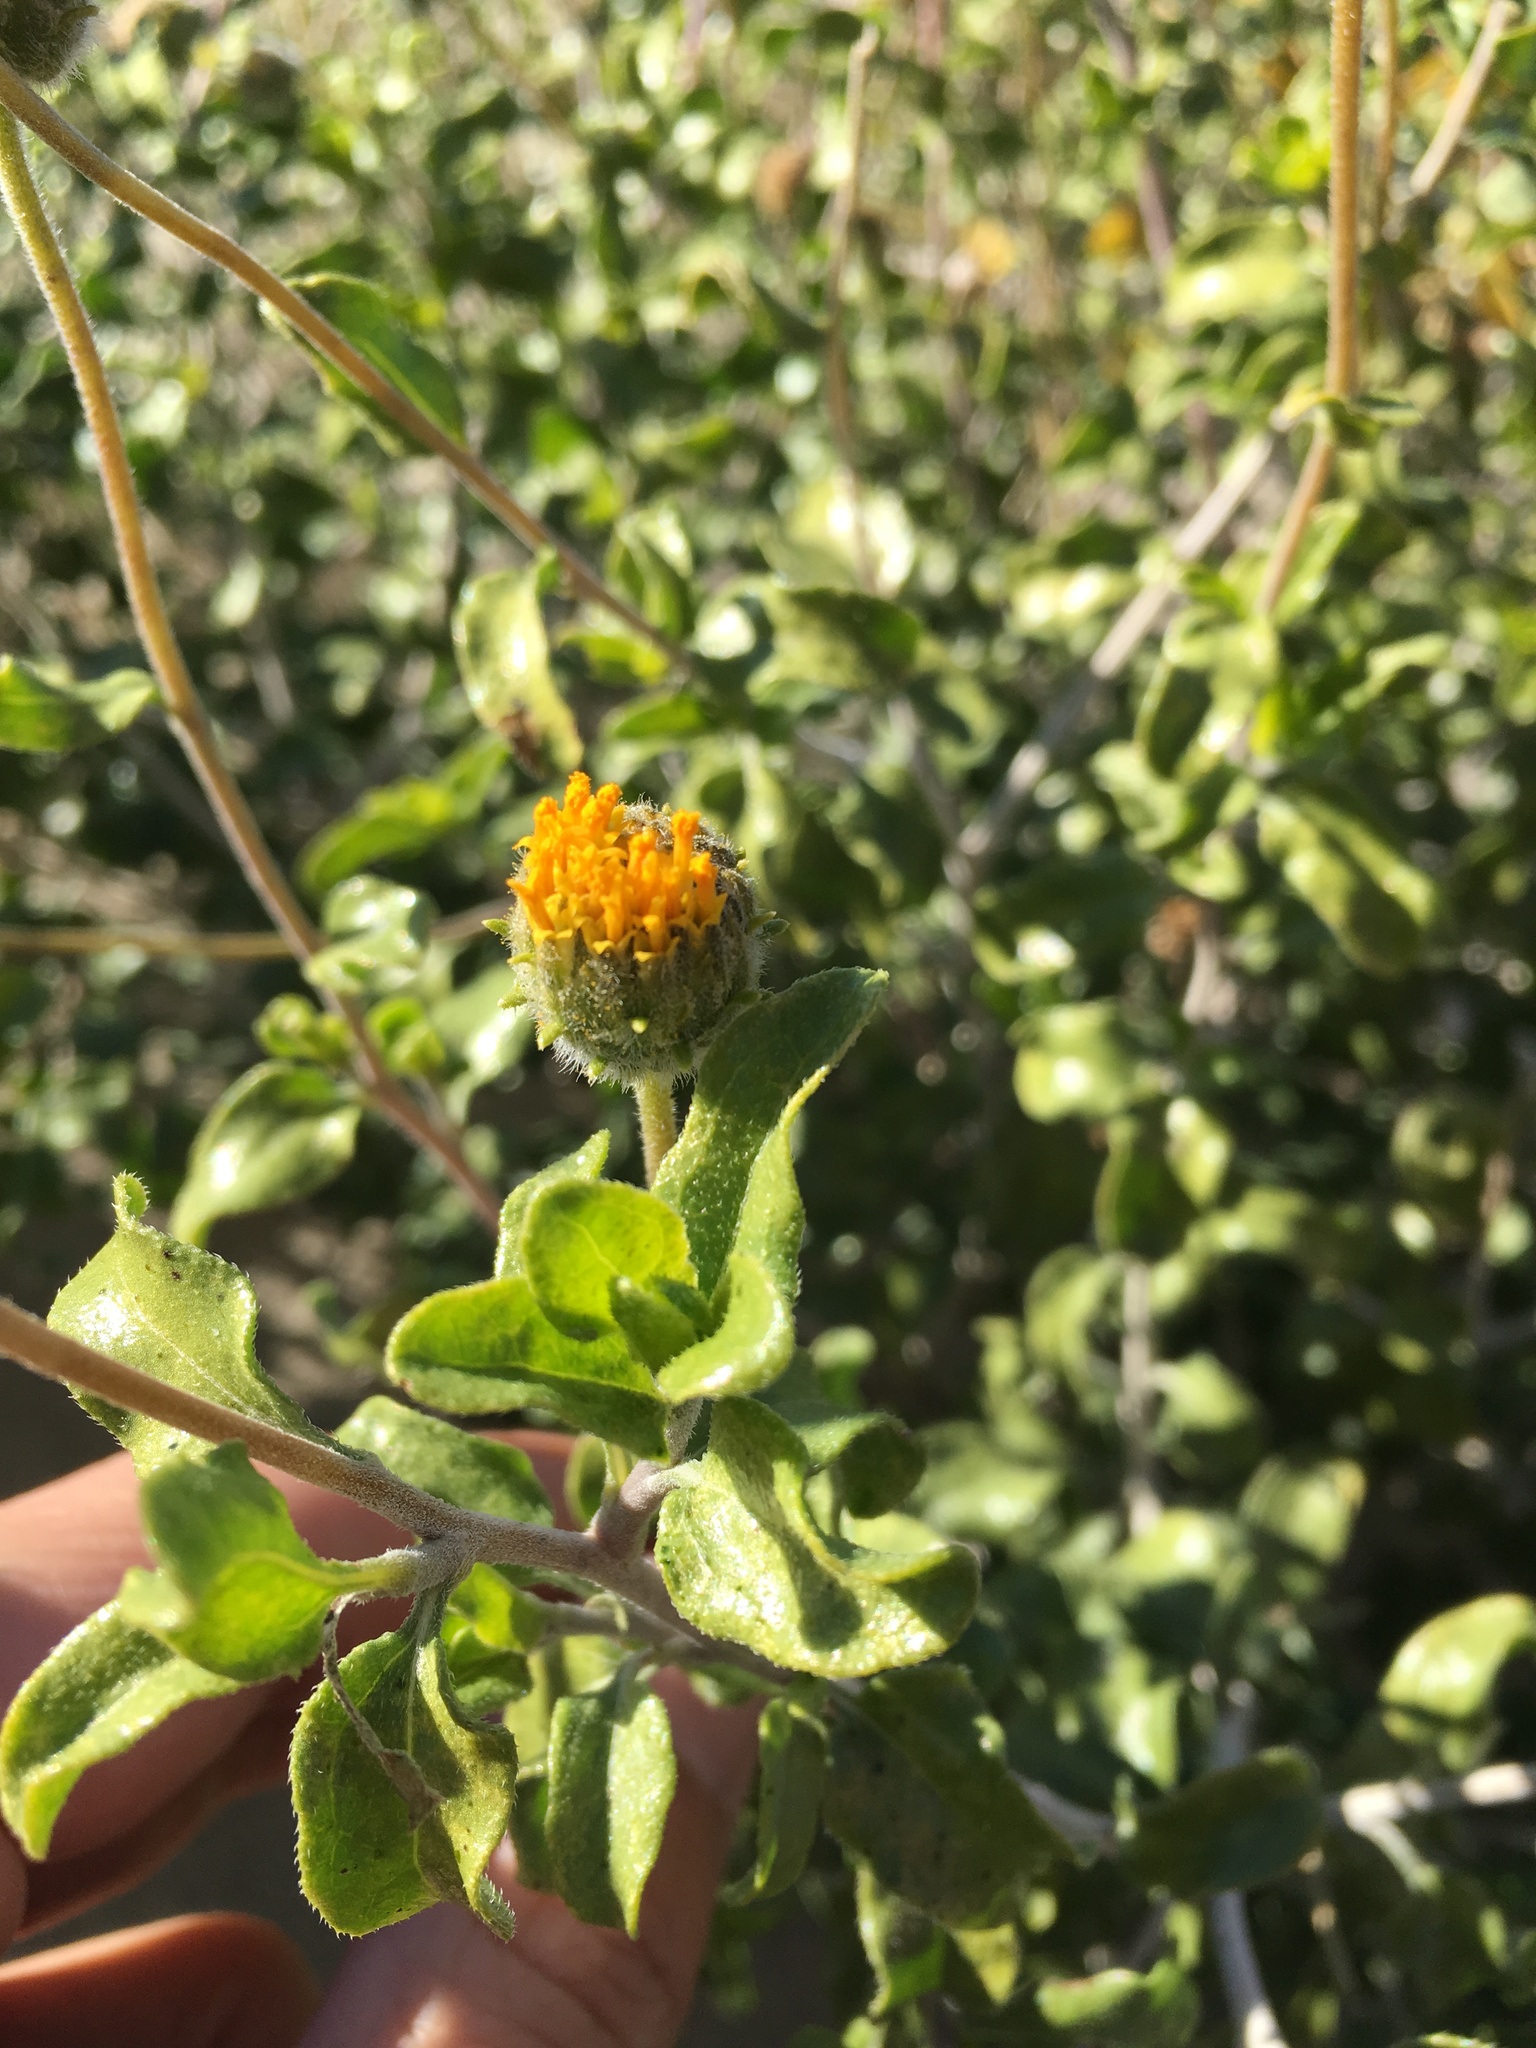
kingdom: Plantae
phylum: Tracheophyta
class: Magnoliopsida
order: Asterales
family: Asteraceae
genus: Encelia
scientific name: Encelia frutescens
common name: Bush encelia
